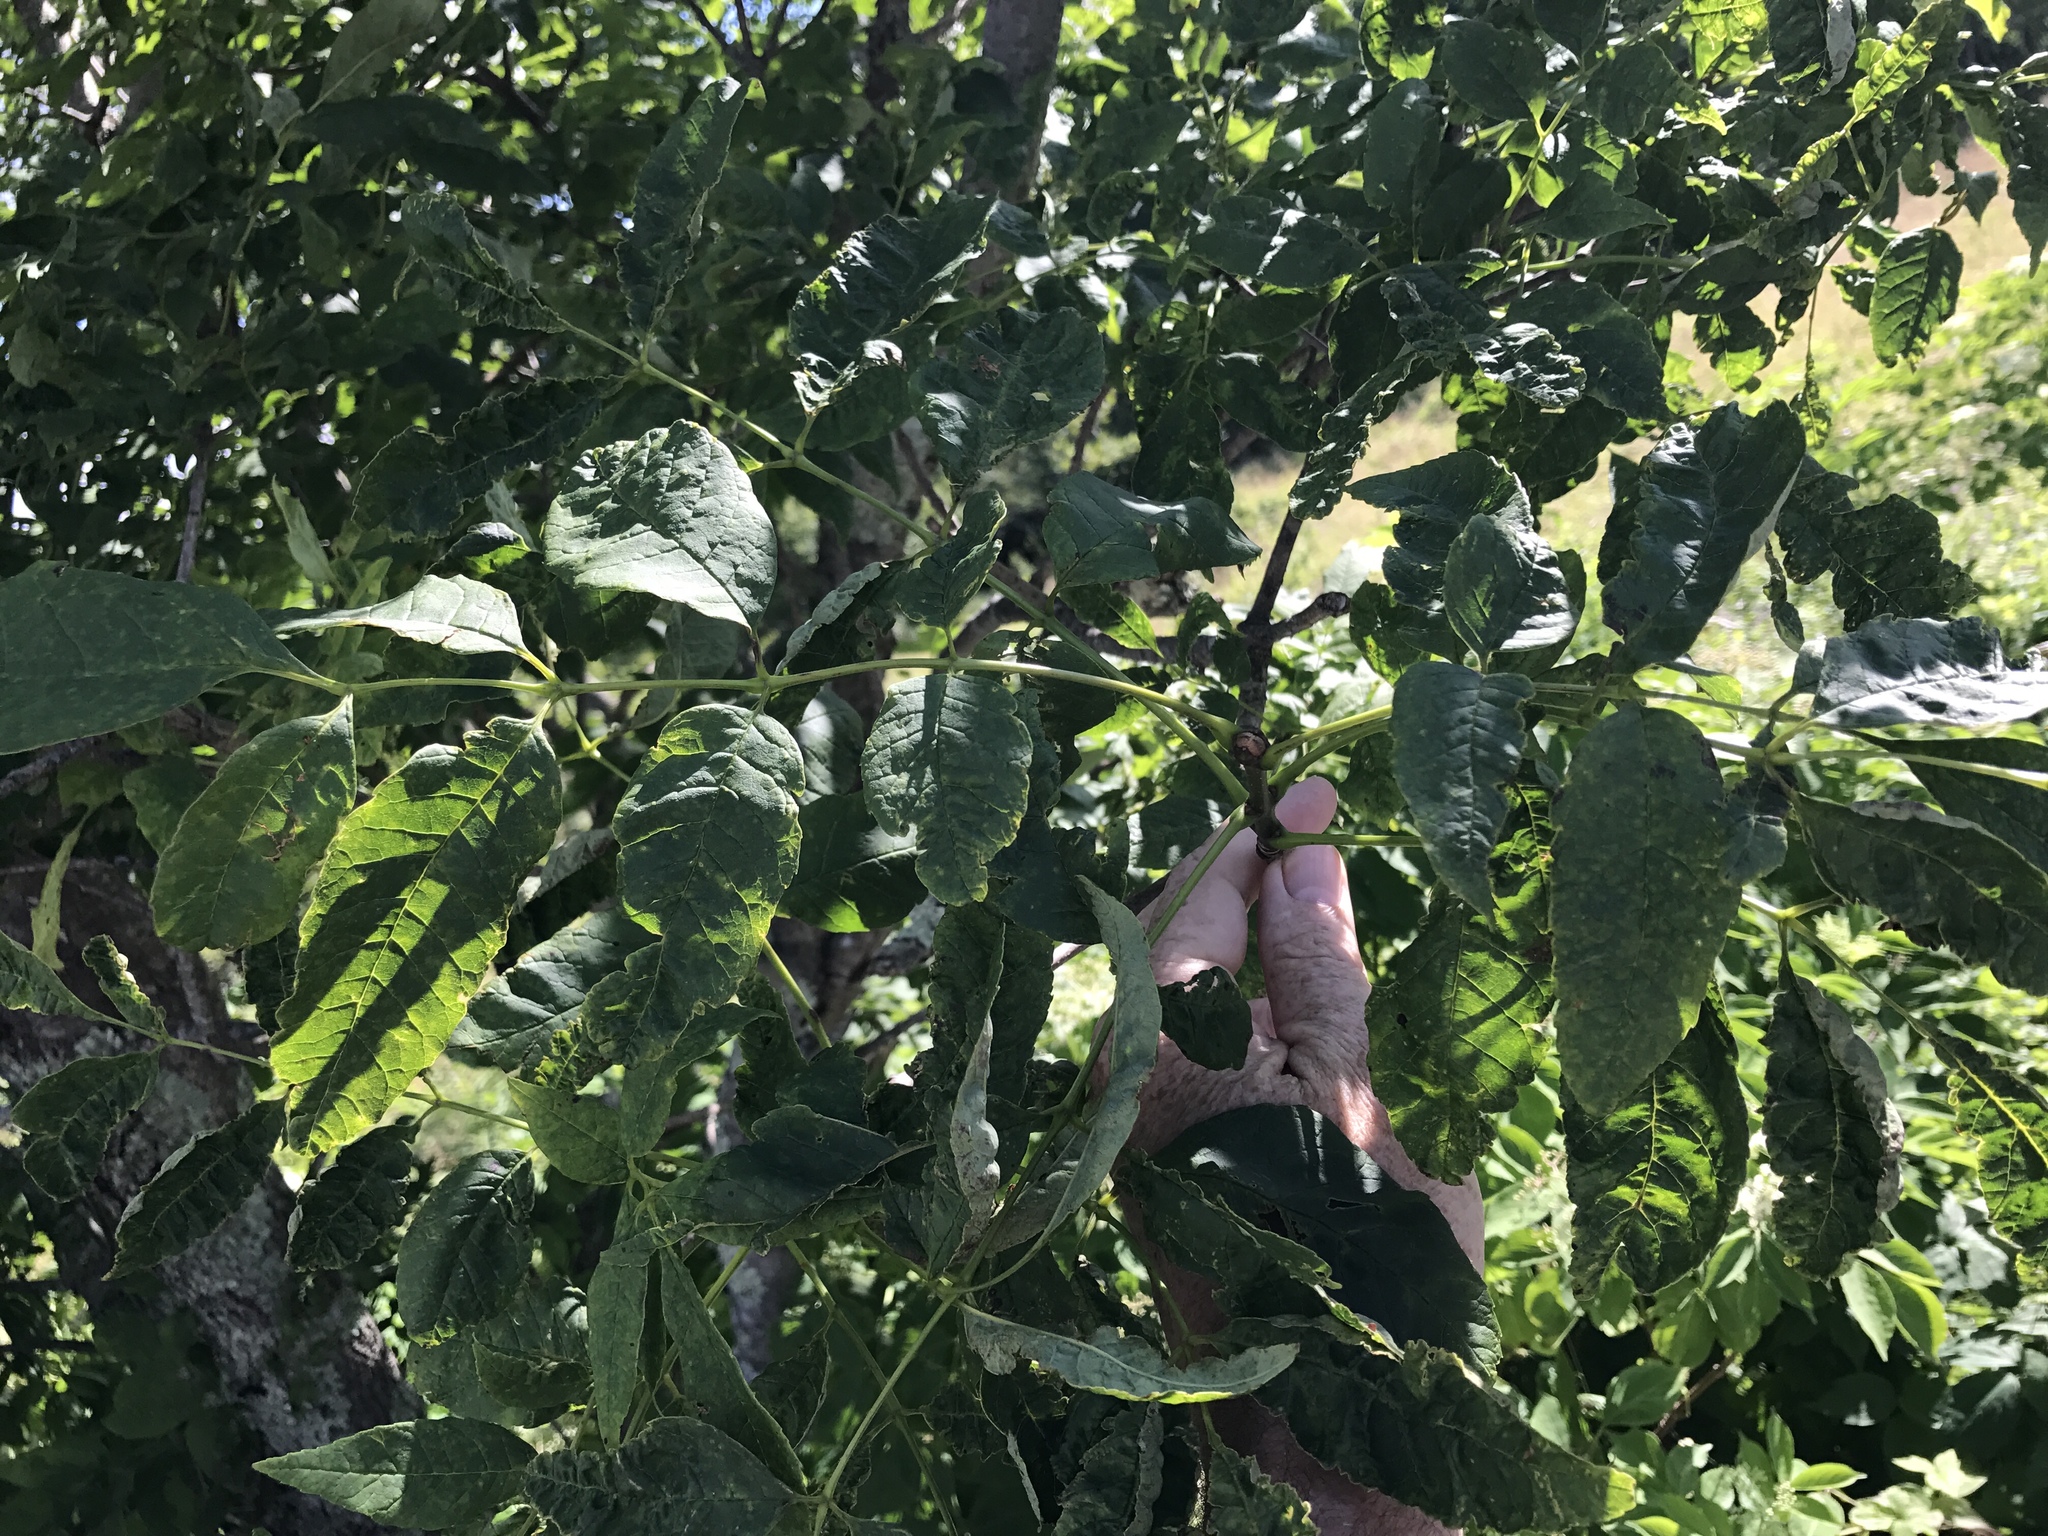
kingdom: Plantae
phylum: Tracheophyta
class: Magnoliopsida
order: Lamiales
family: Oleaceae
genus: Fraxinus
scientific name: Fraxinus americana
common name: White ash
